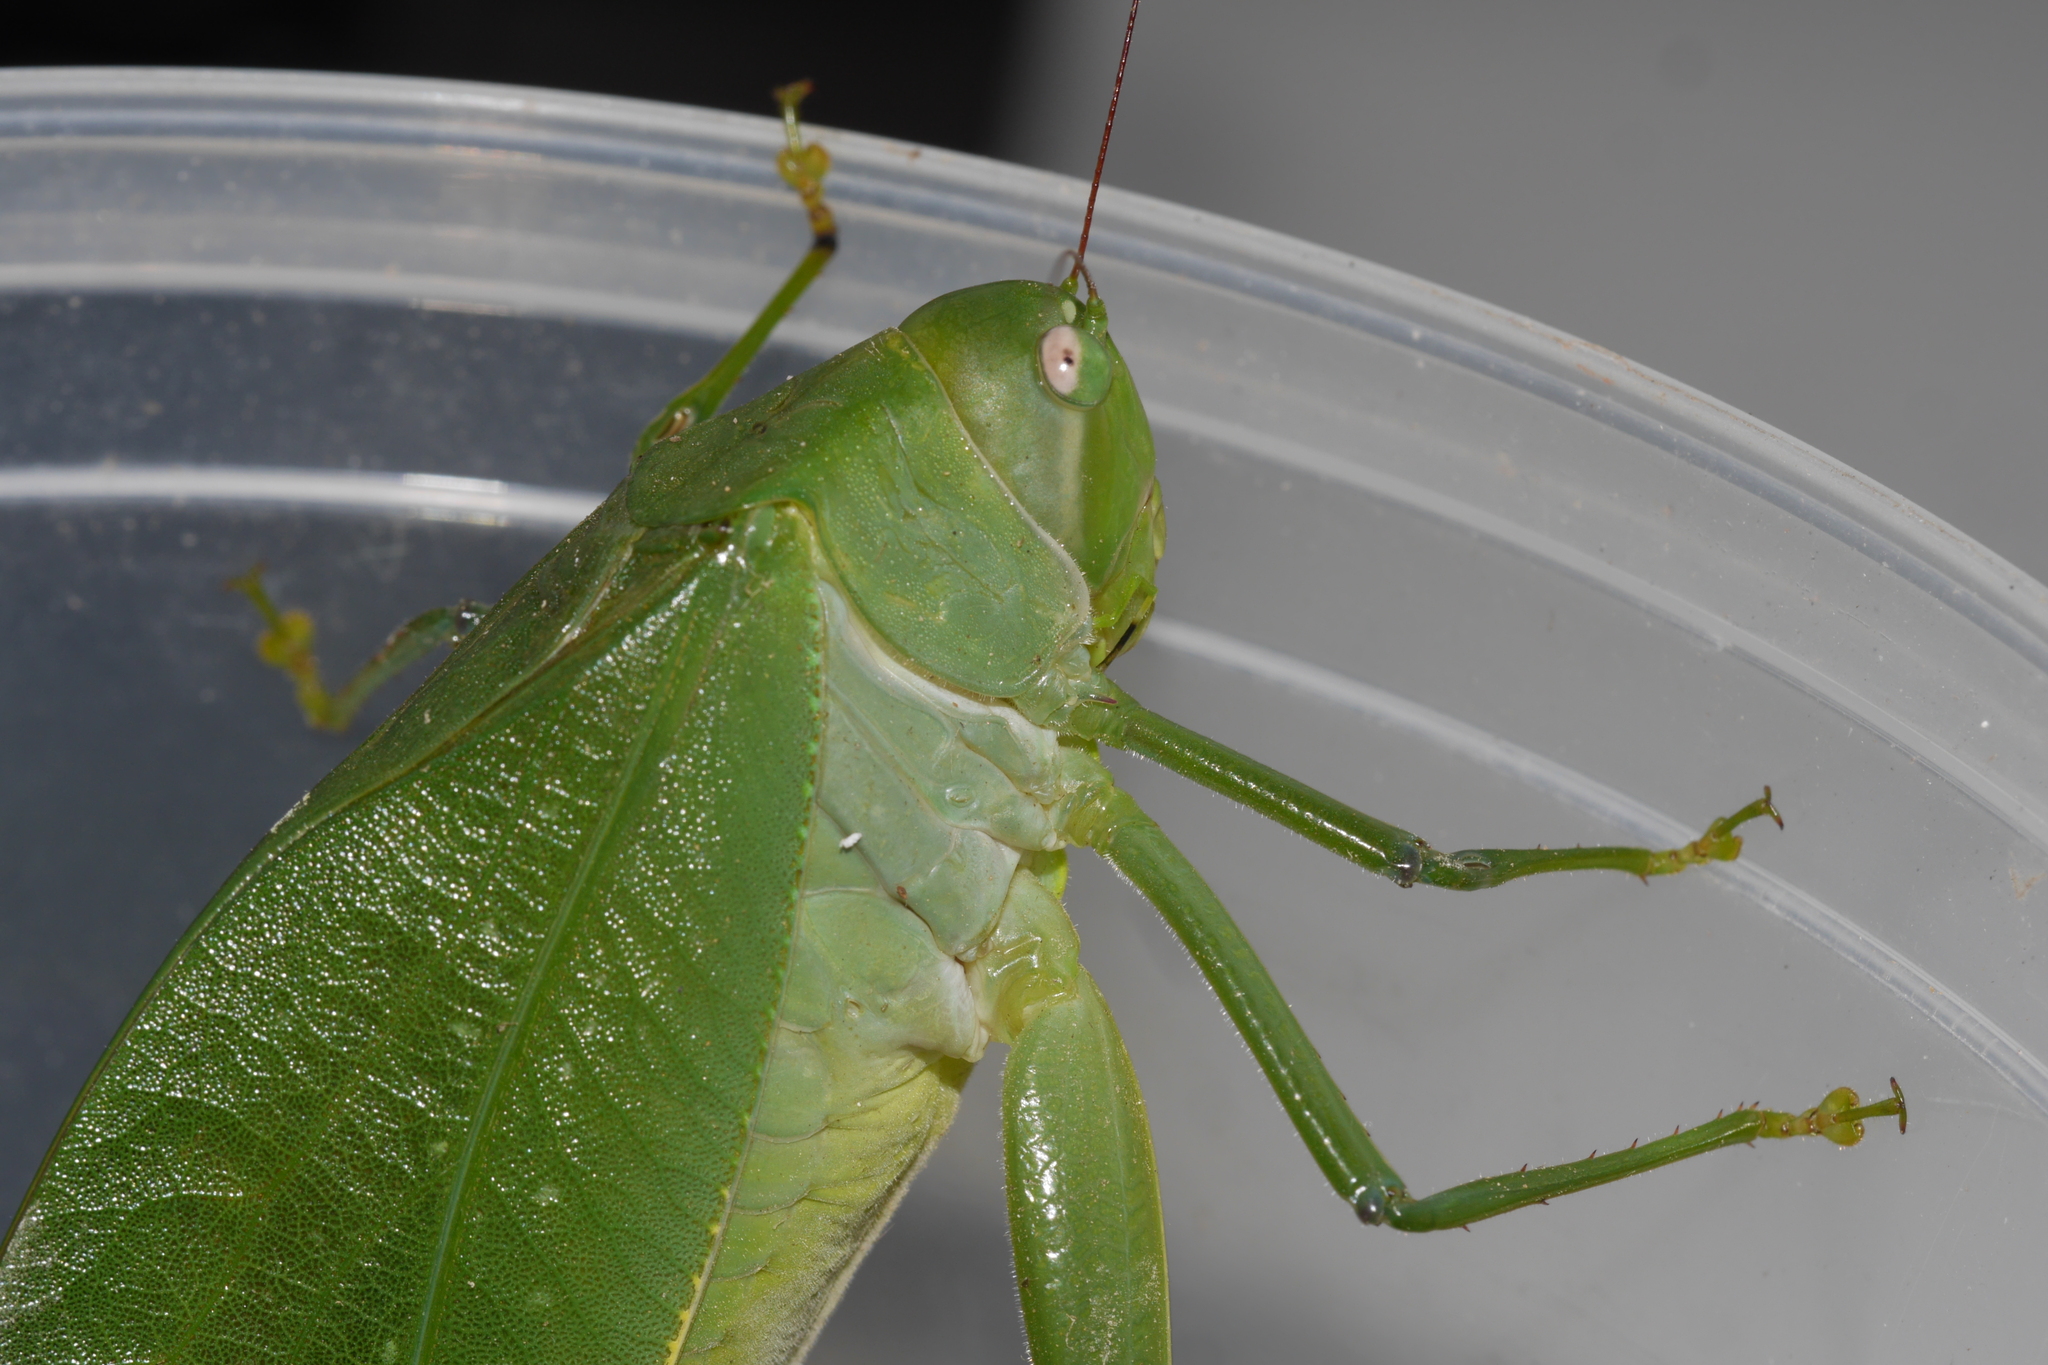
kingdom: Animalia
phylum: Arthropoda
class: Insecta
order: Orthoptera
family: Tettigoniidae
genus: Philophyllia
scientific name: Philophyllia ingens
